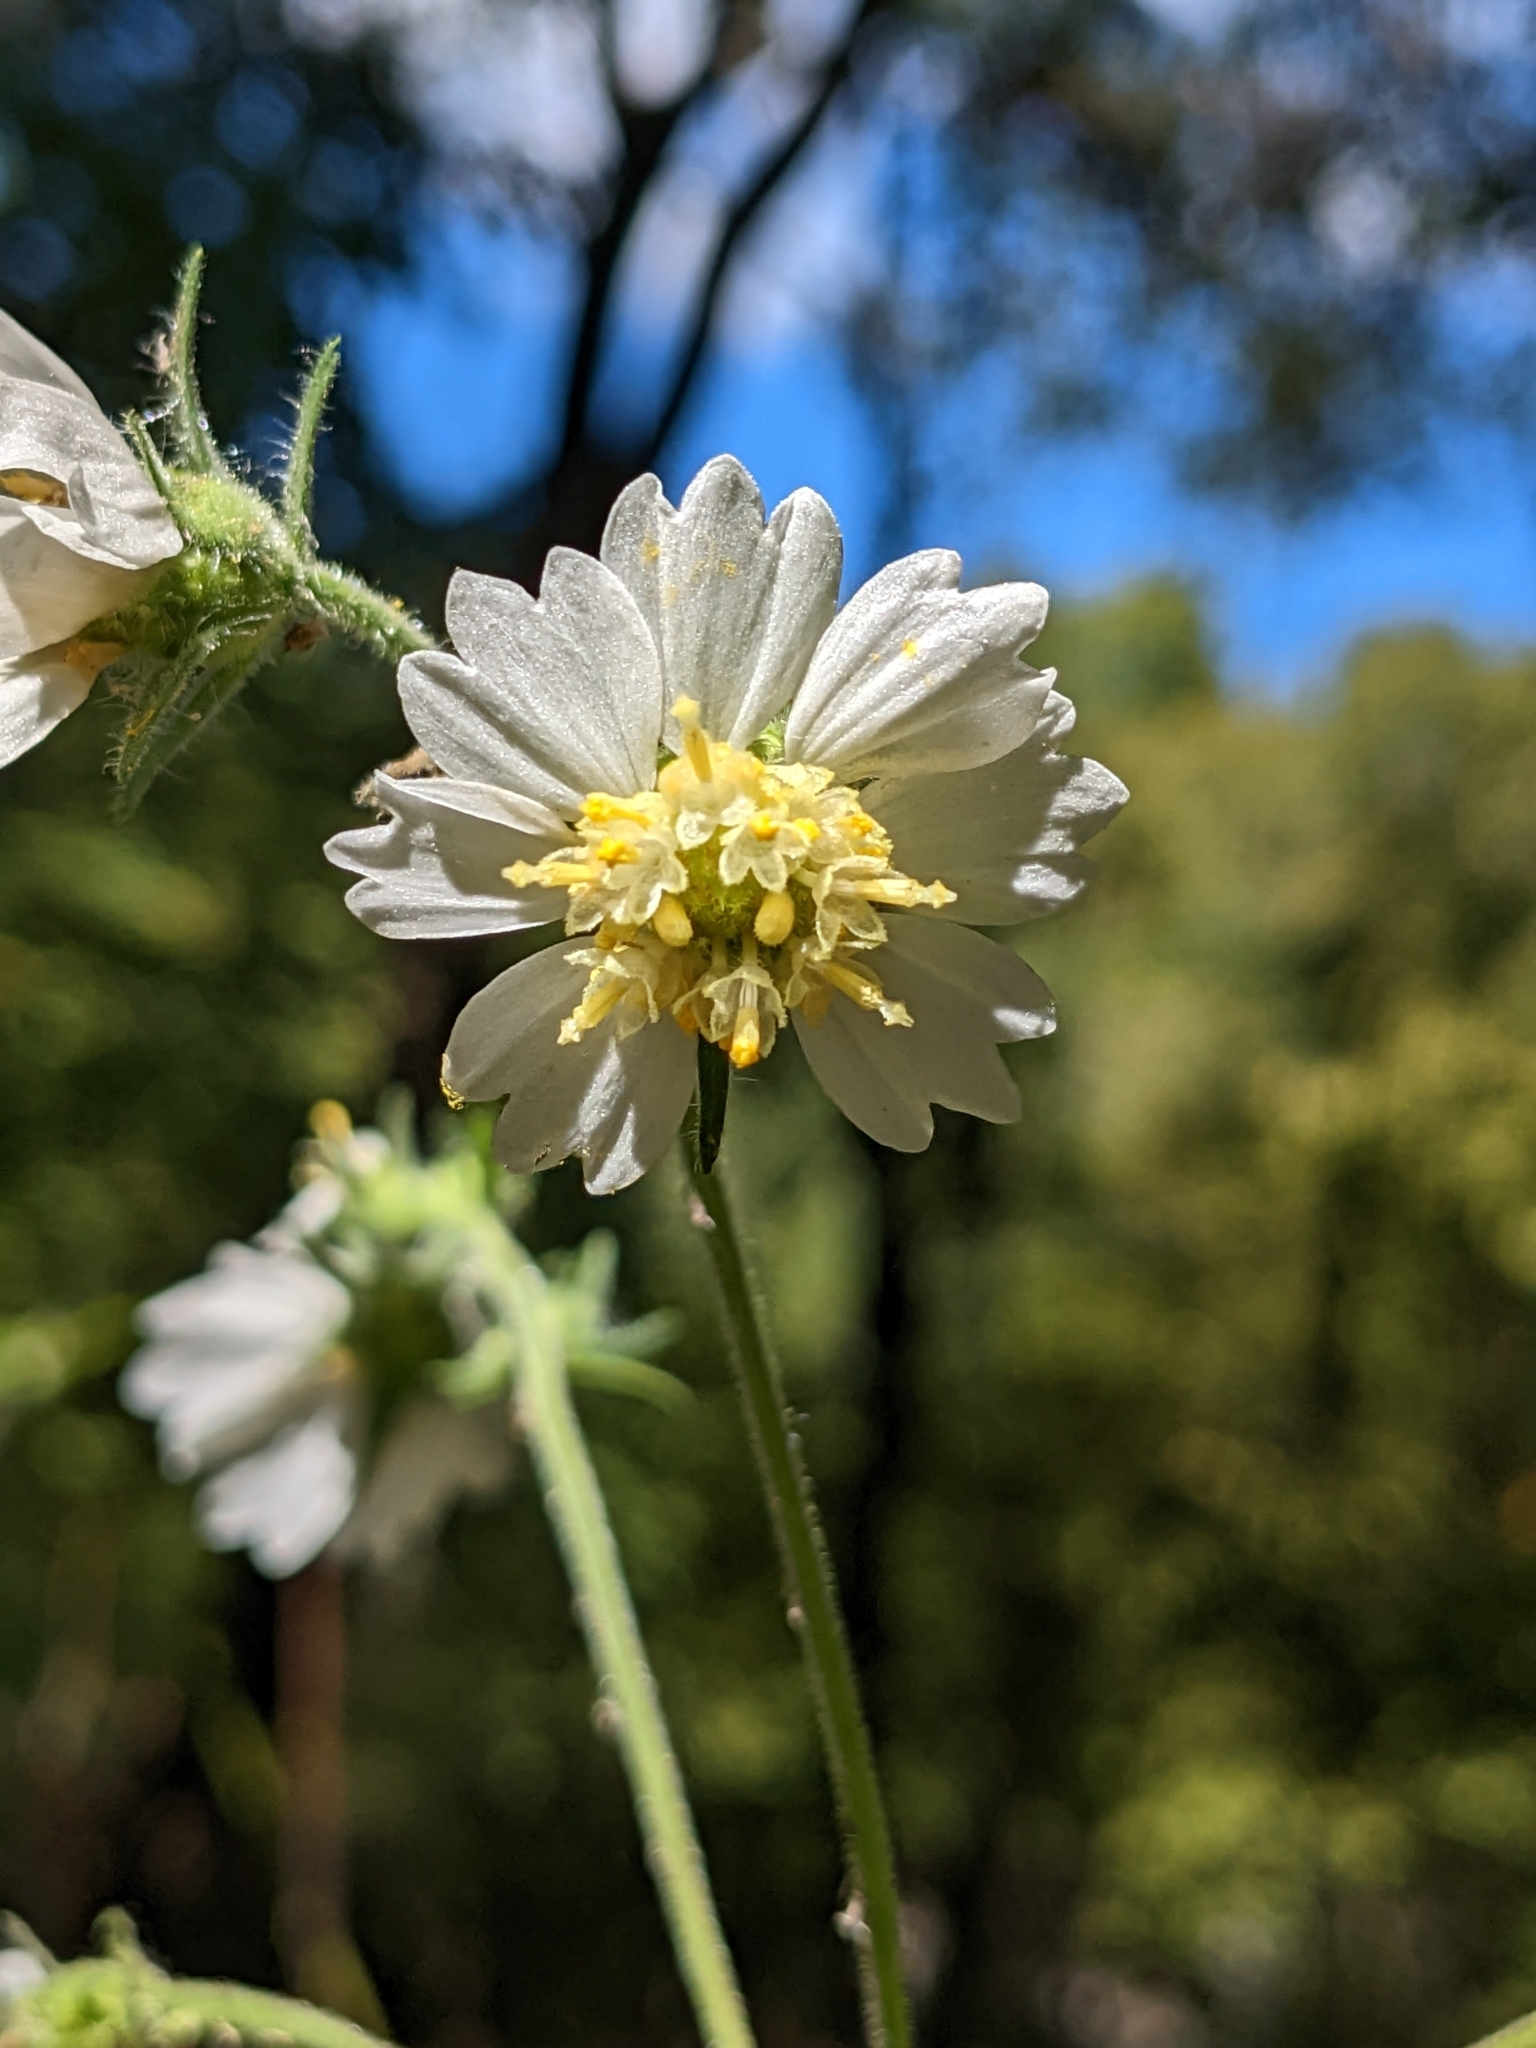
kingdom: Plantae
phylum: Tracheophyta
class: Magnoliopsida
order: Asterales
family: Asteraceae
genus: Polymnia
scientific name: Polymnia canadensis
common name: Pale-flowered leafcup
